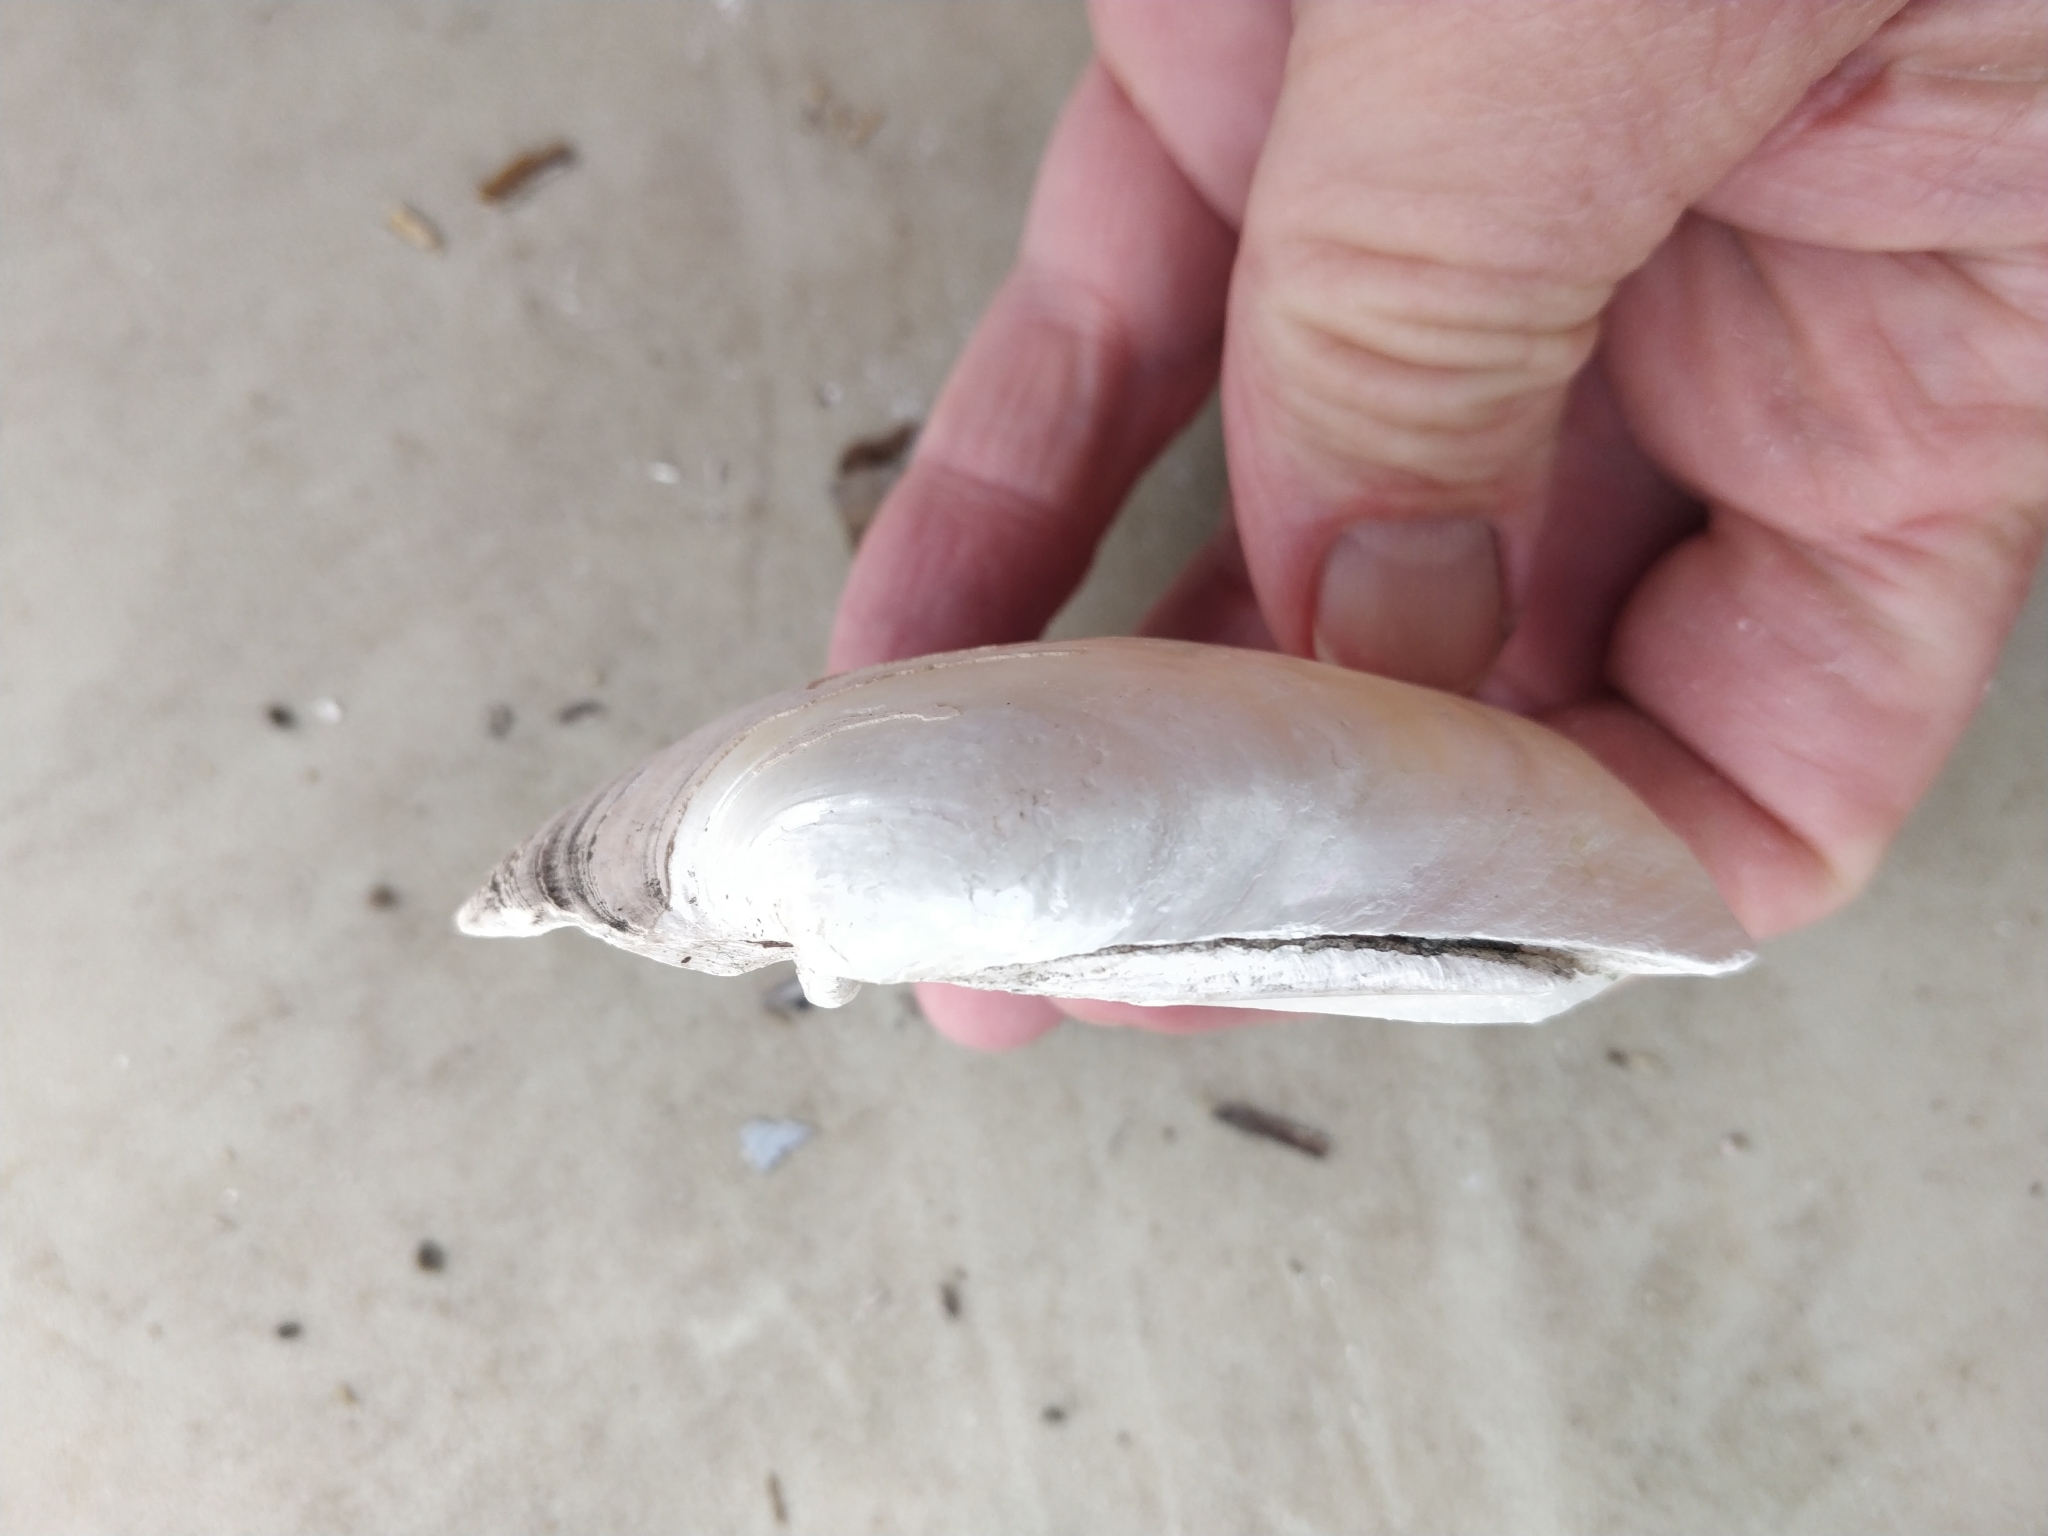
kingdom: Animalia
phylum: Mollusca
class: Bivalvia
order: Unionida
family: Unionidae
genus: Lampsilis
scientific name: Lampsilis cardium
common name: Plain pocketbook
